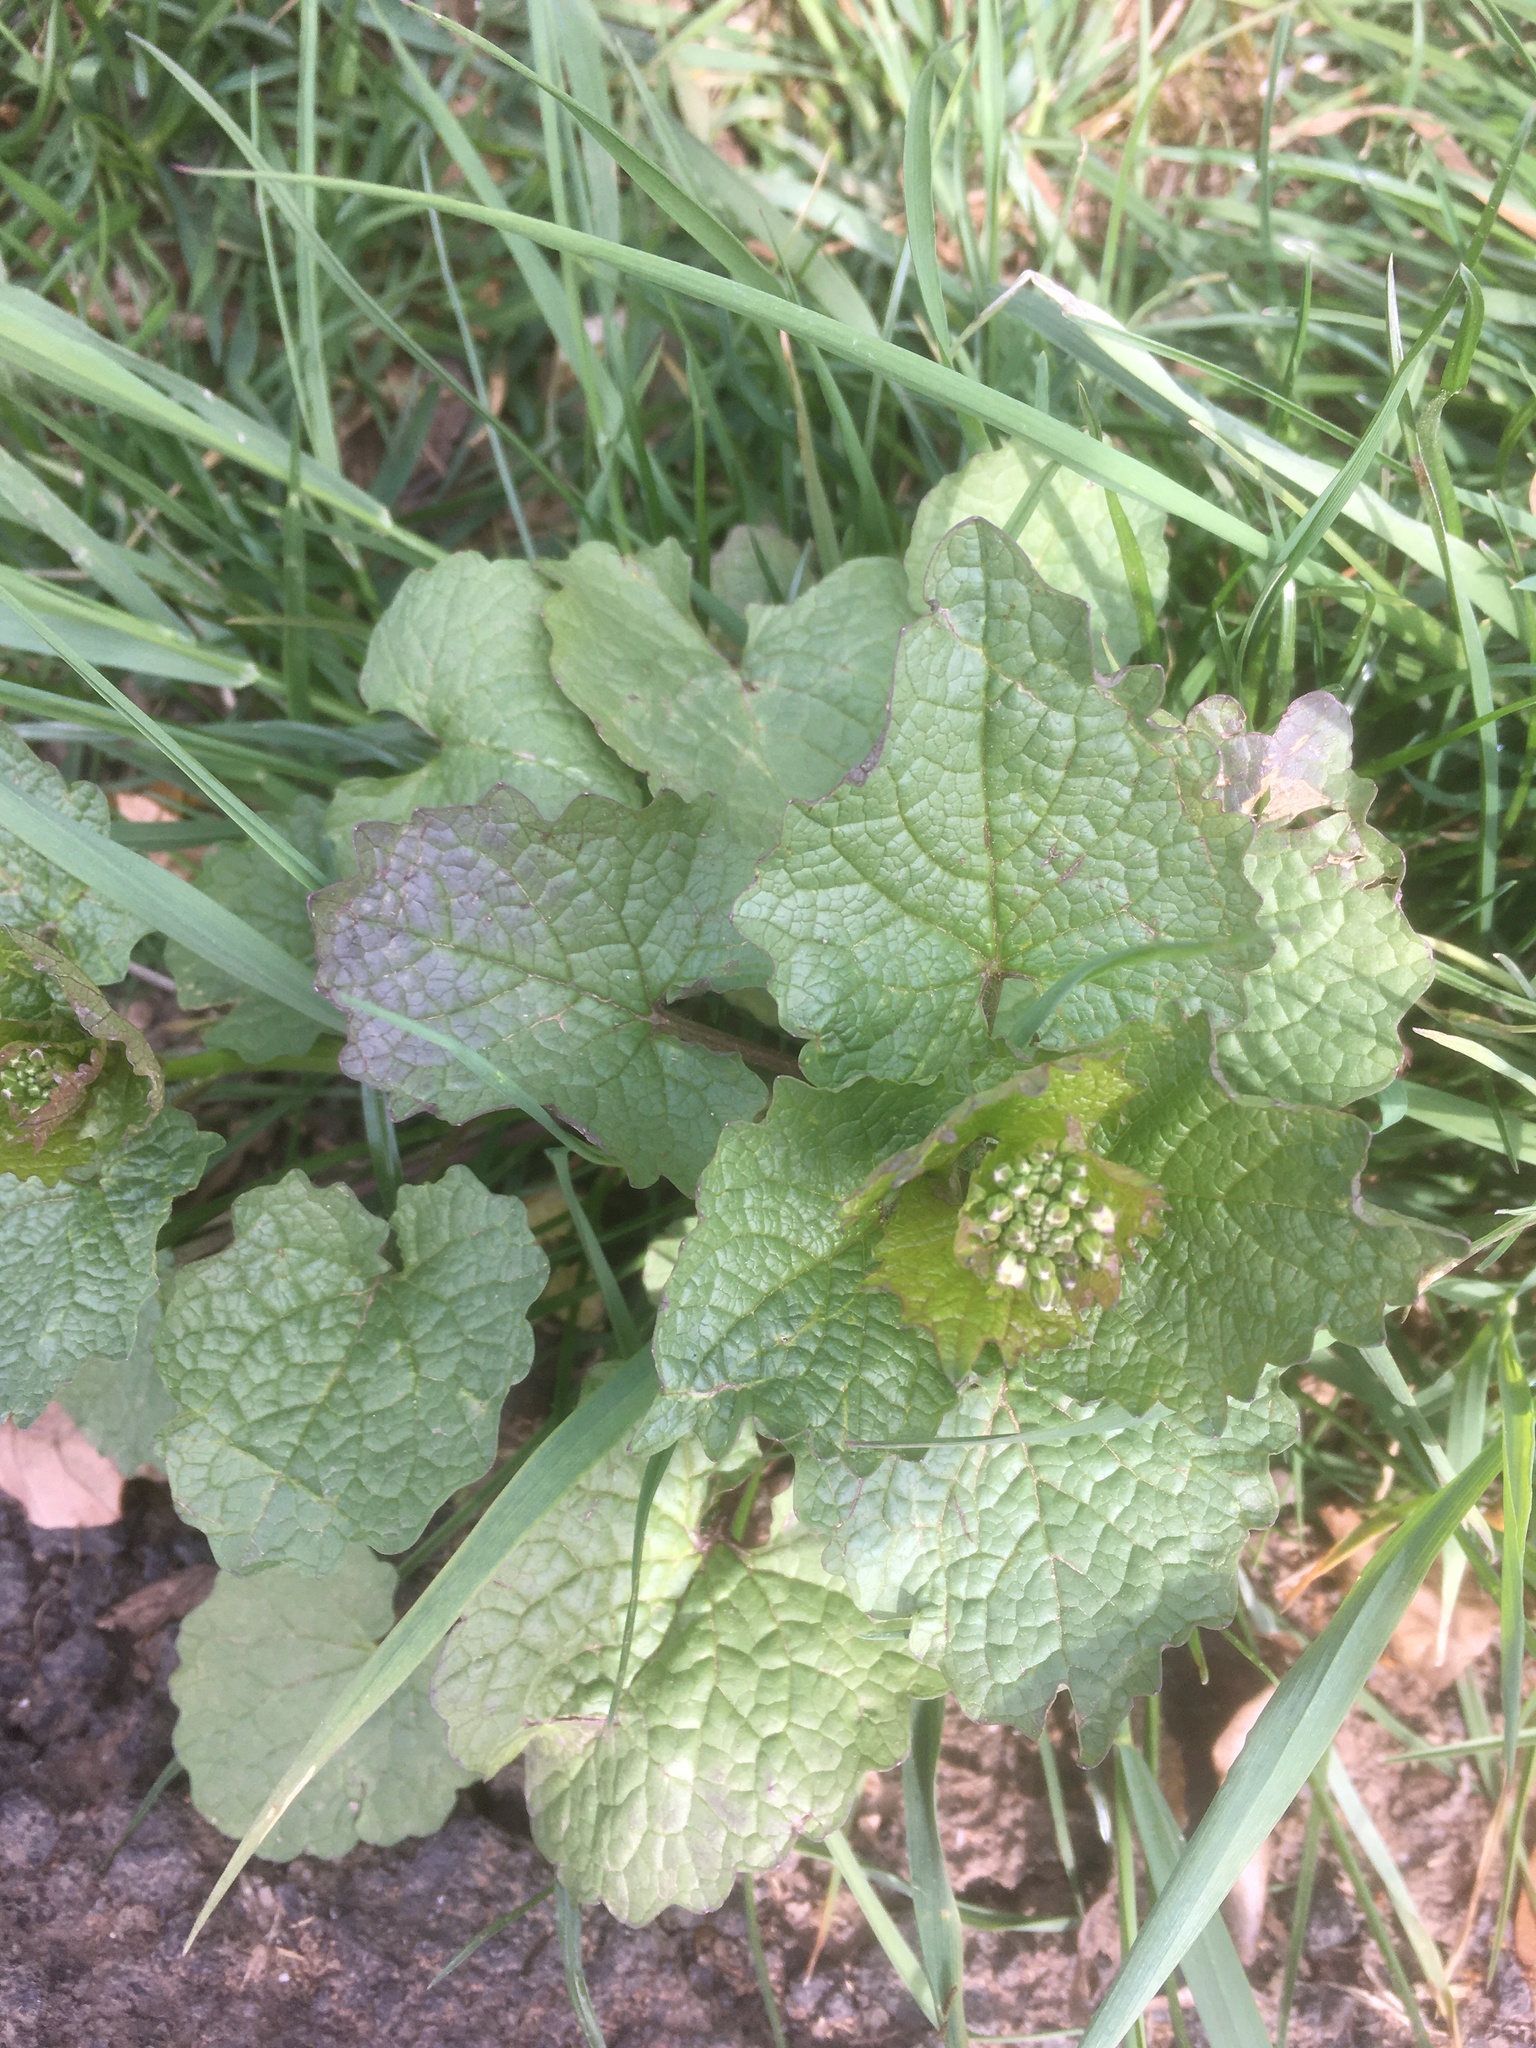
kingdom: Plantae
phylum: Tracheophyta
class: Magnoliopsida
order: Brassicales
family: Brassicaceae
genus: Alliaria
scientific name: Alliaria petiolata
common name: Garlic mustard
